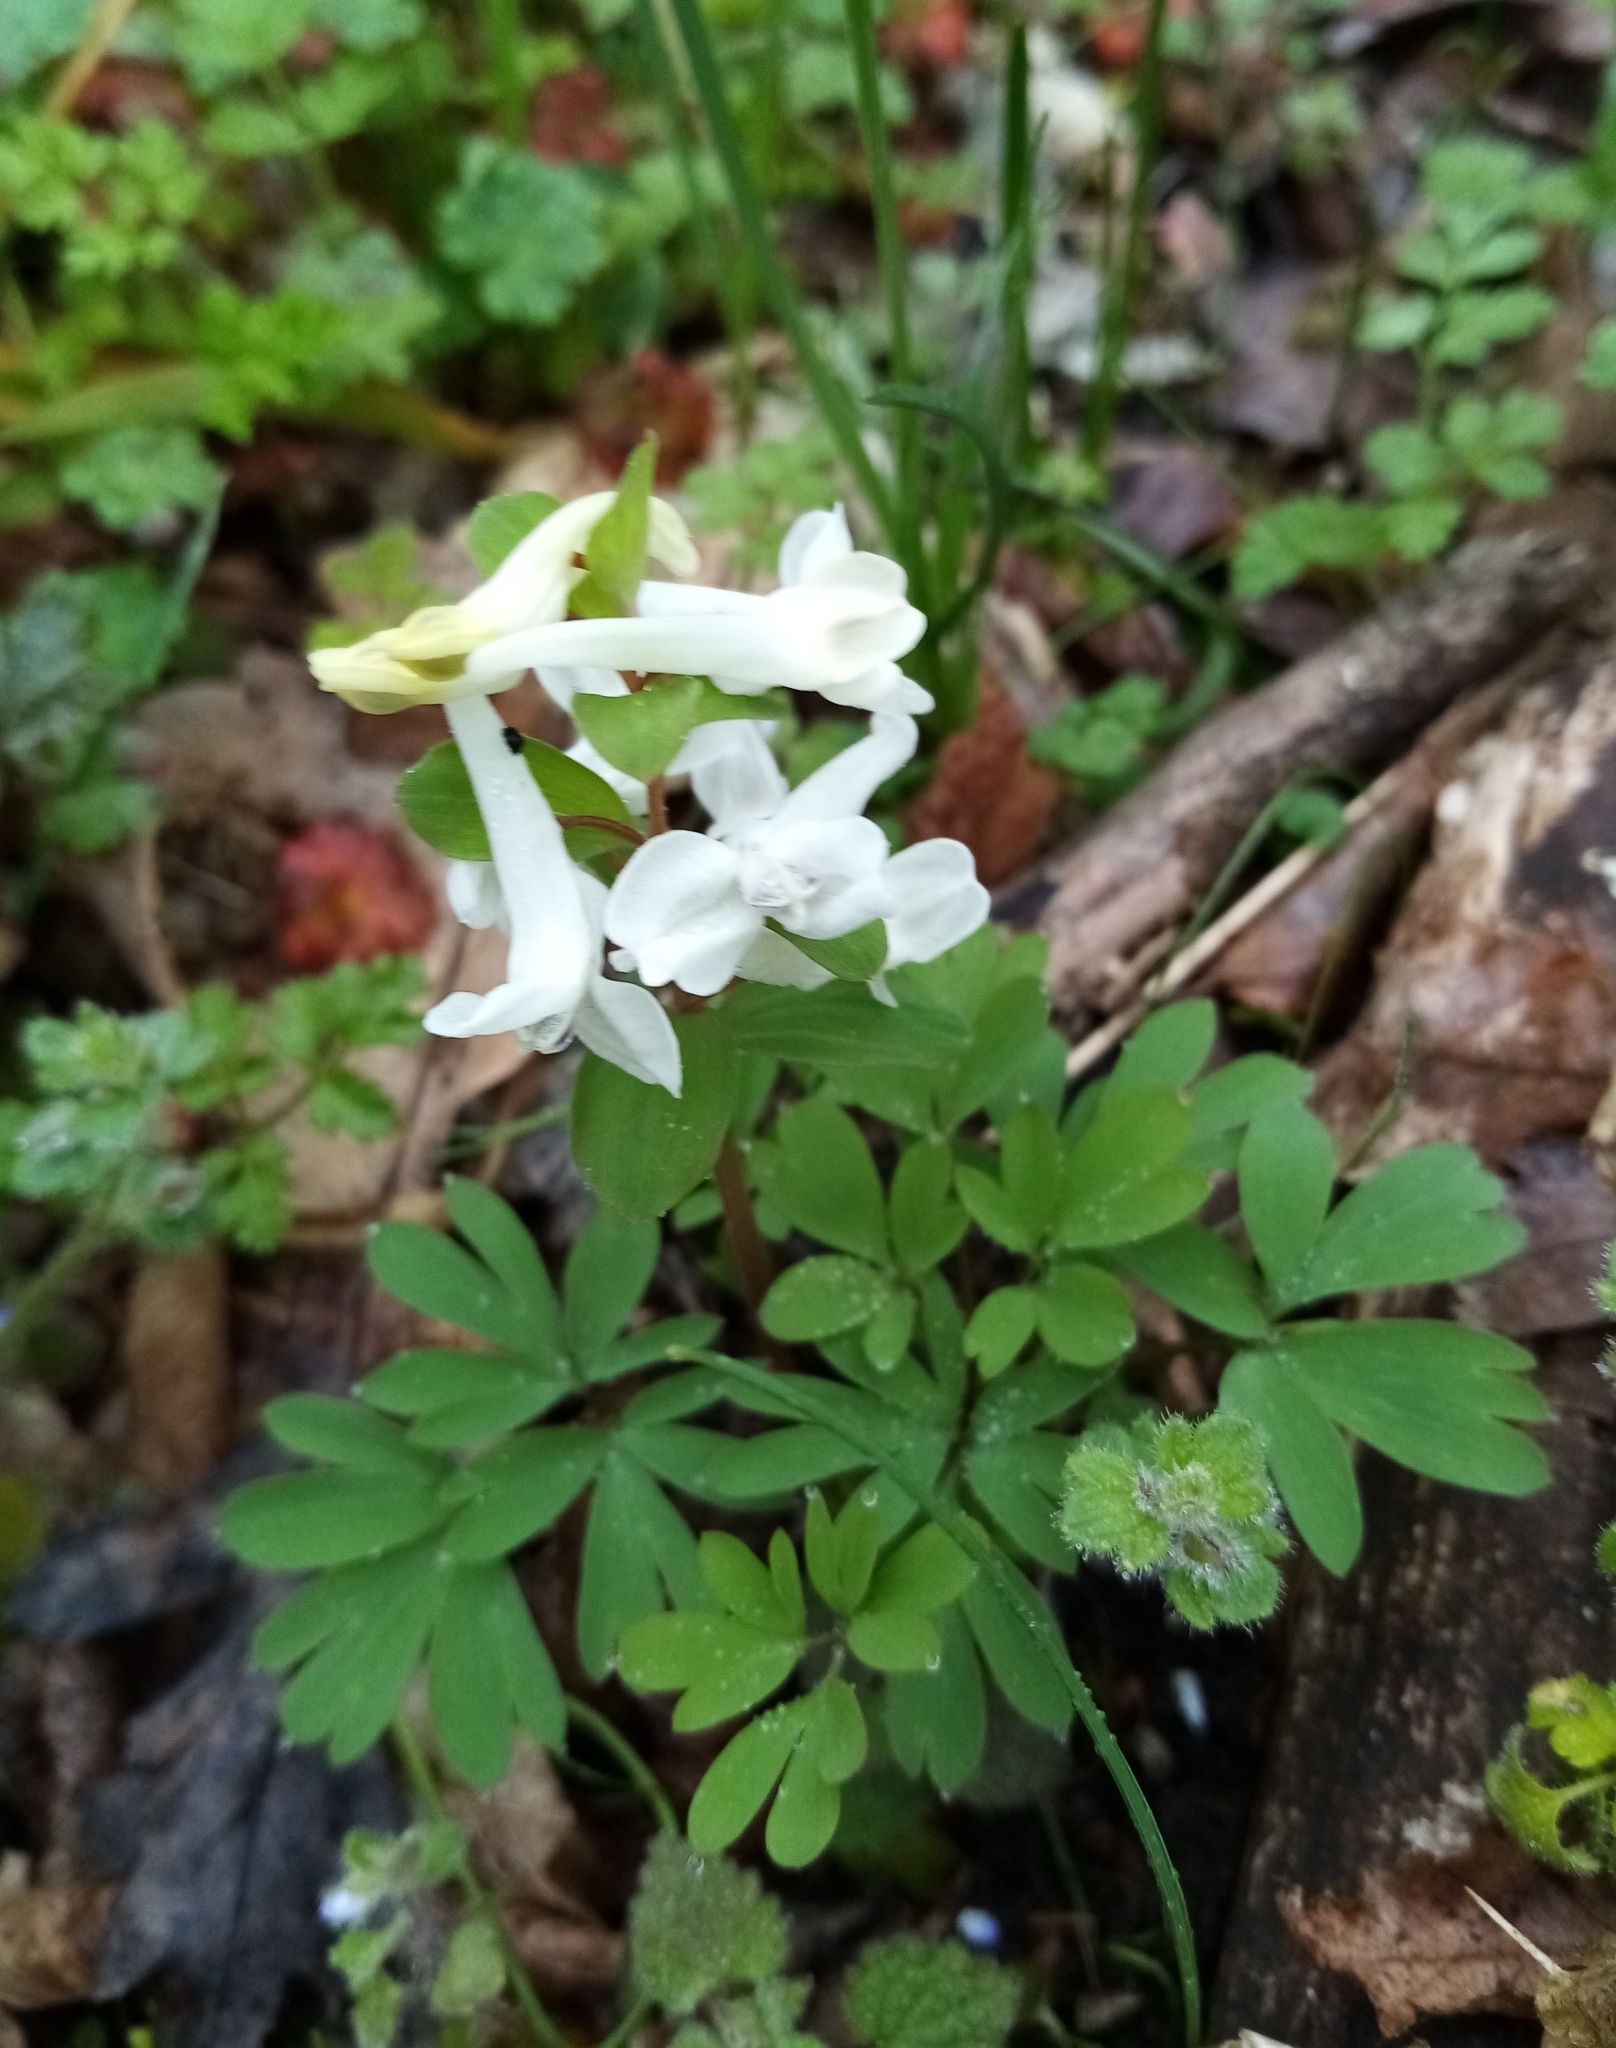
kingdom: Plantae
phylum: Tracheophyta
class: Magnoliopsida
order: Ranunculales
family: Papaveraceae
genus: Corydalis
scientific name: Corydalis caucasica
